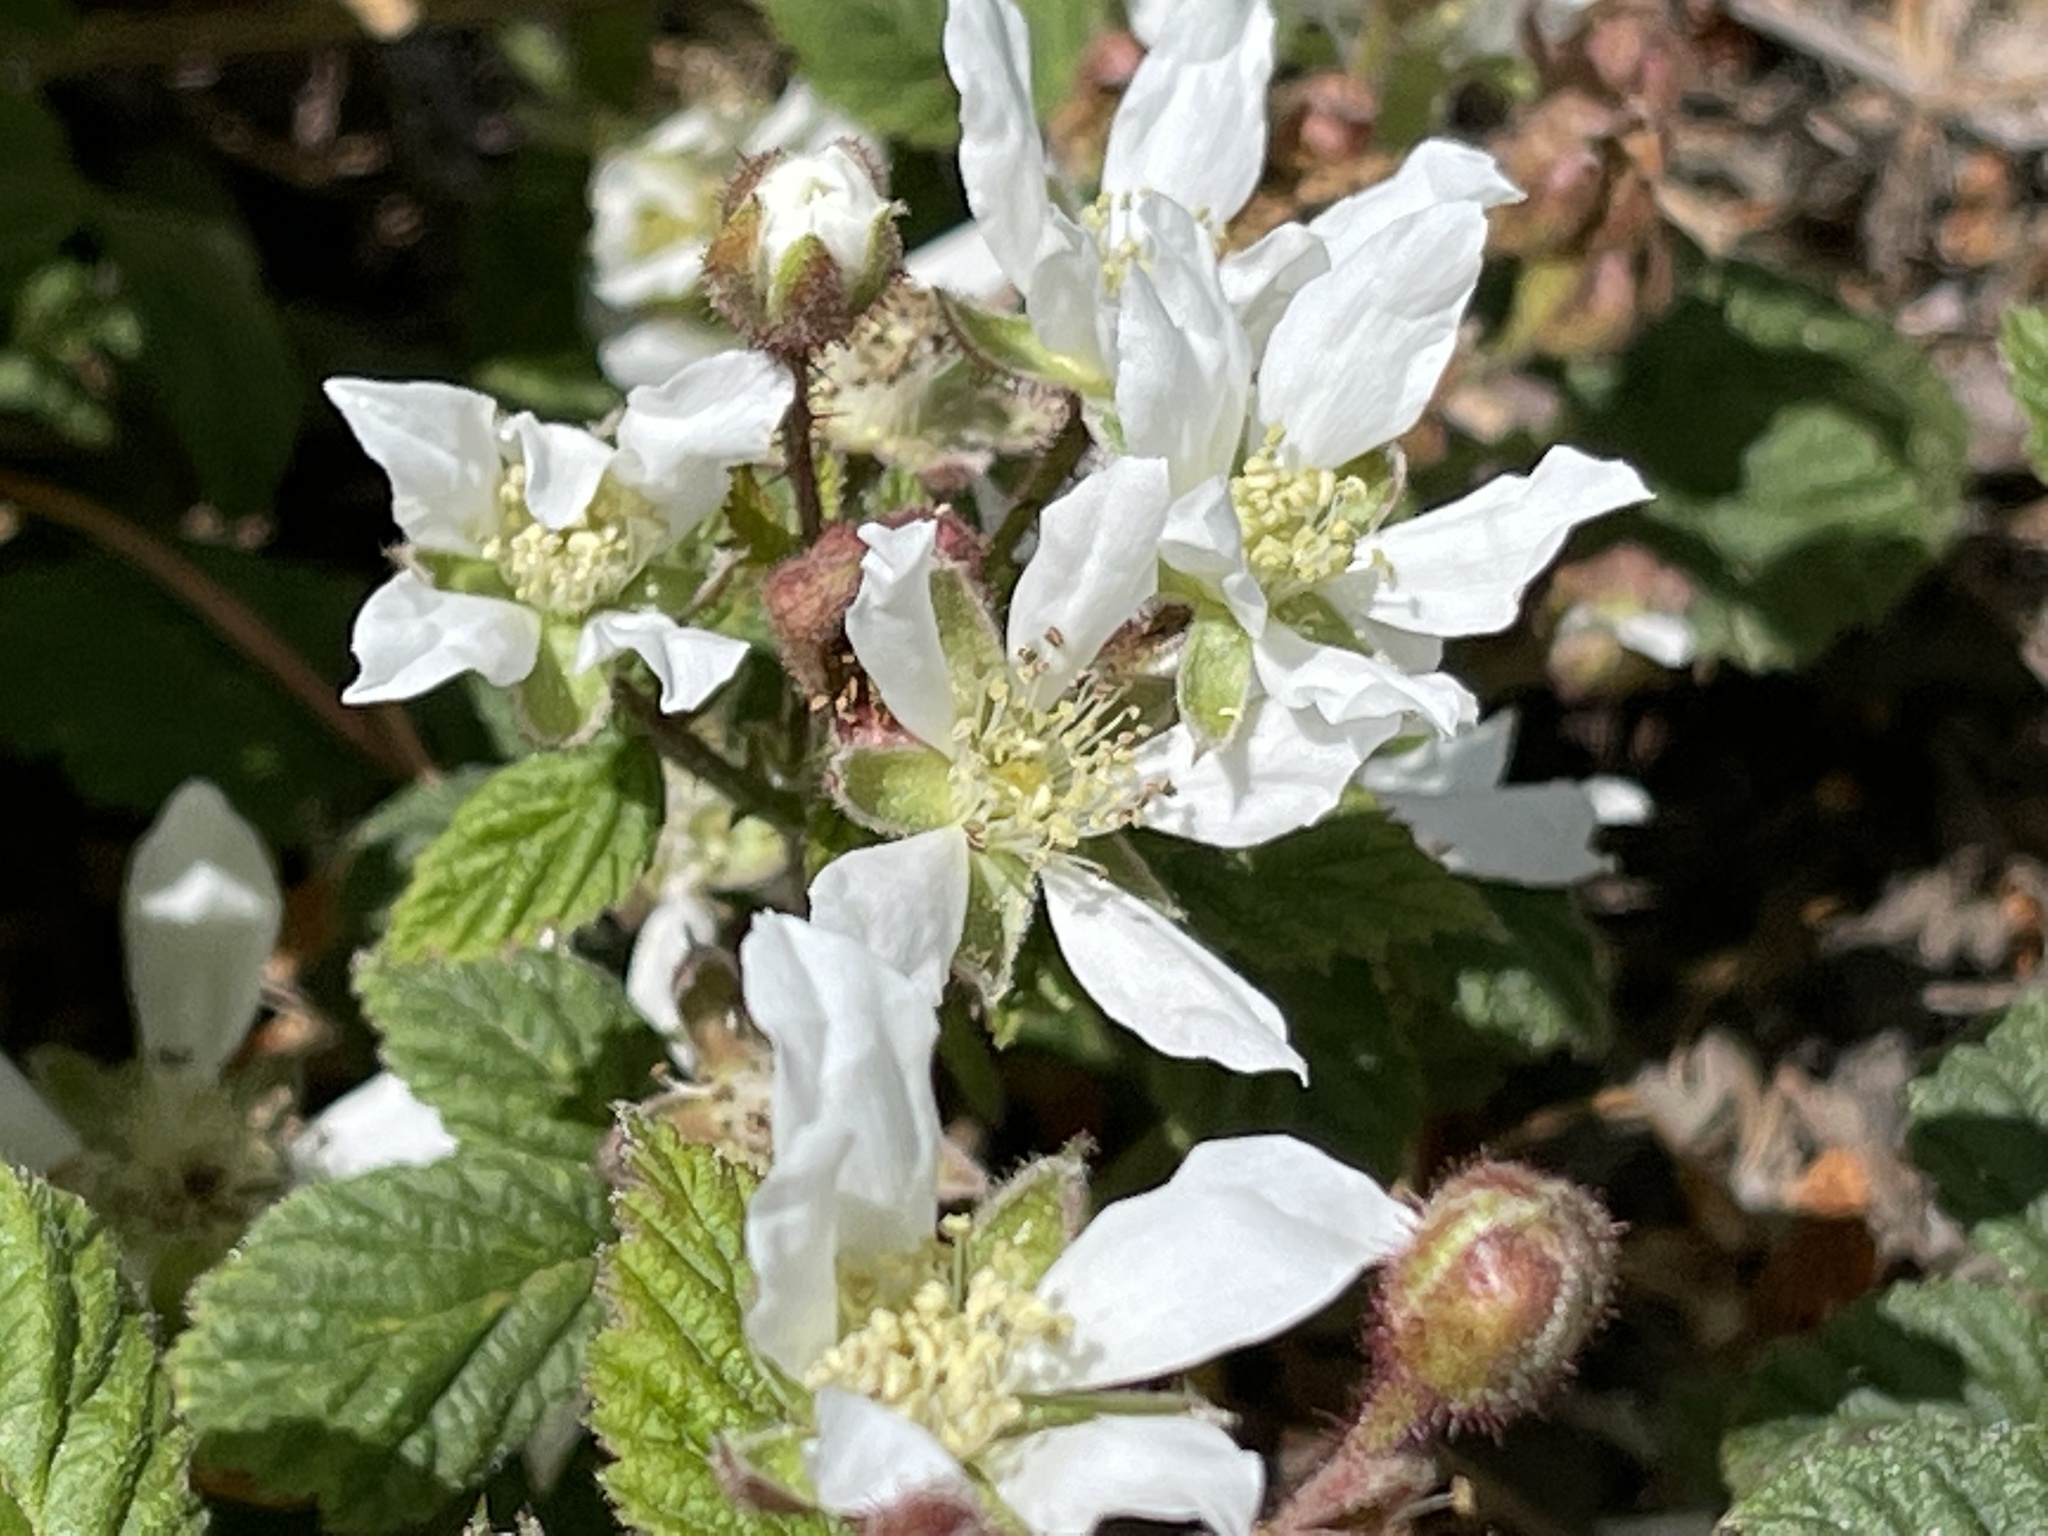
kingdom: Plantae
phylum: Tracheophyta
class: Magnoliopsida
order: Rosales
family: Rosaceae
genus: Rubus
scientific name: Rubus ursinus
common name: Pacific blackberry
